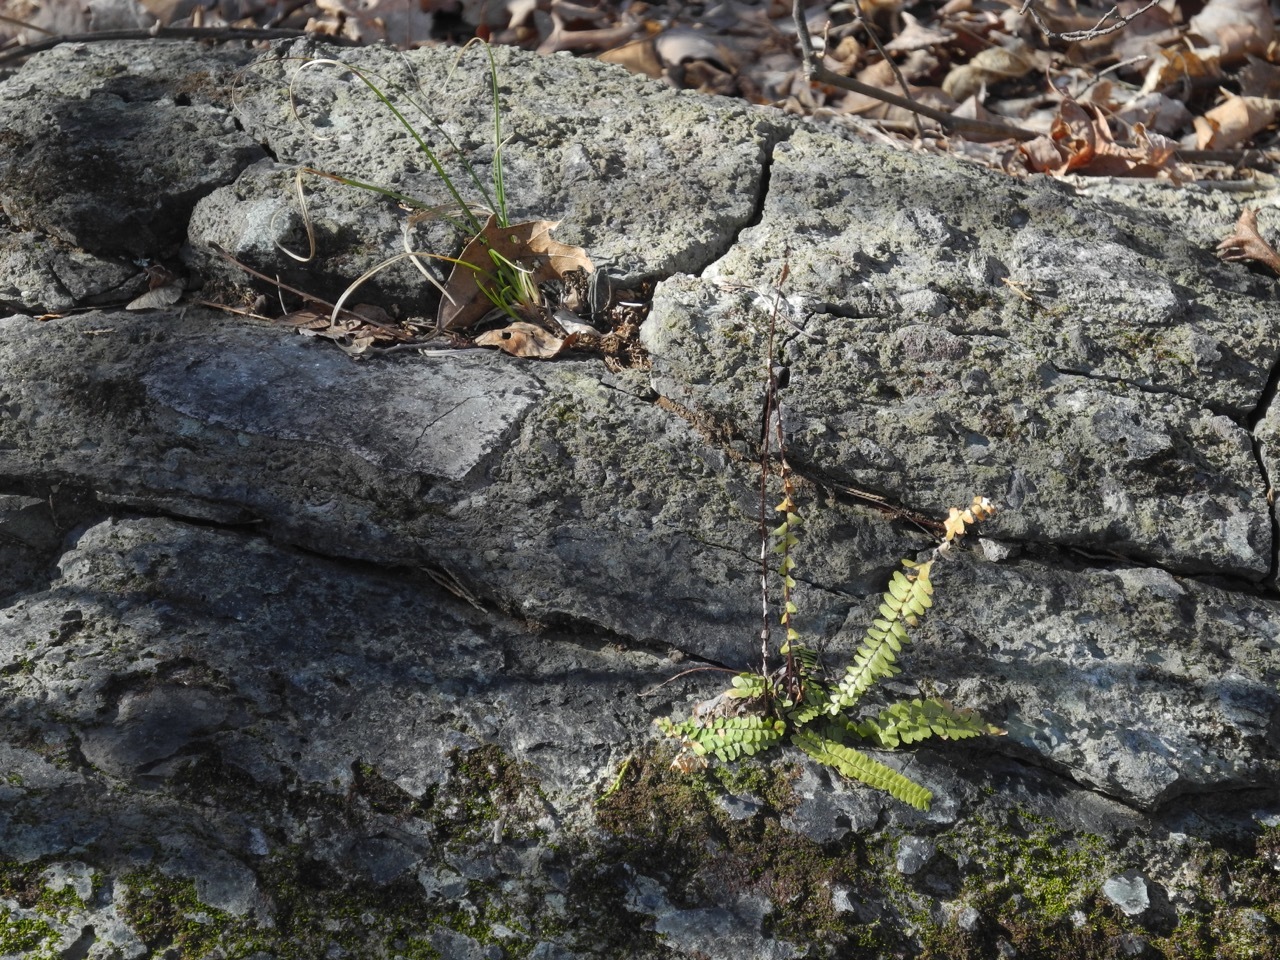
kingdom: Plantae
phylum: Tracheophyta
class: Polypodiopsida
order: Polypodiales
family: Aspleniaceae
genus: Asplenium
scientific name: Asplenium platyneuron
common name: Ebony spleenwort
